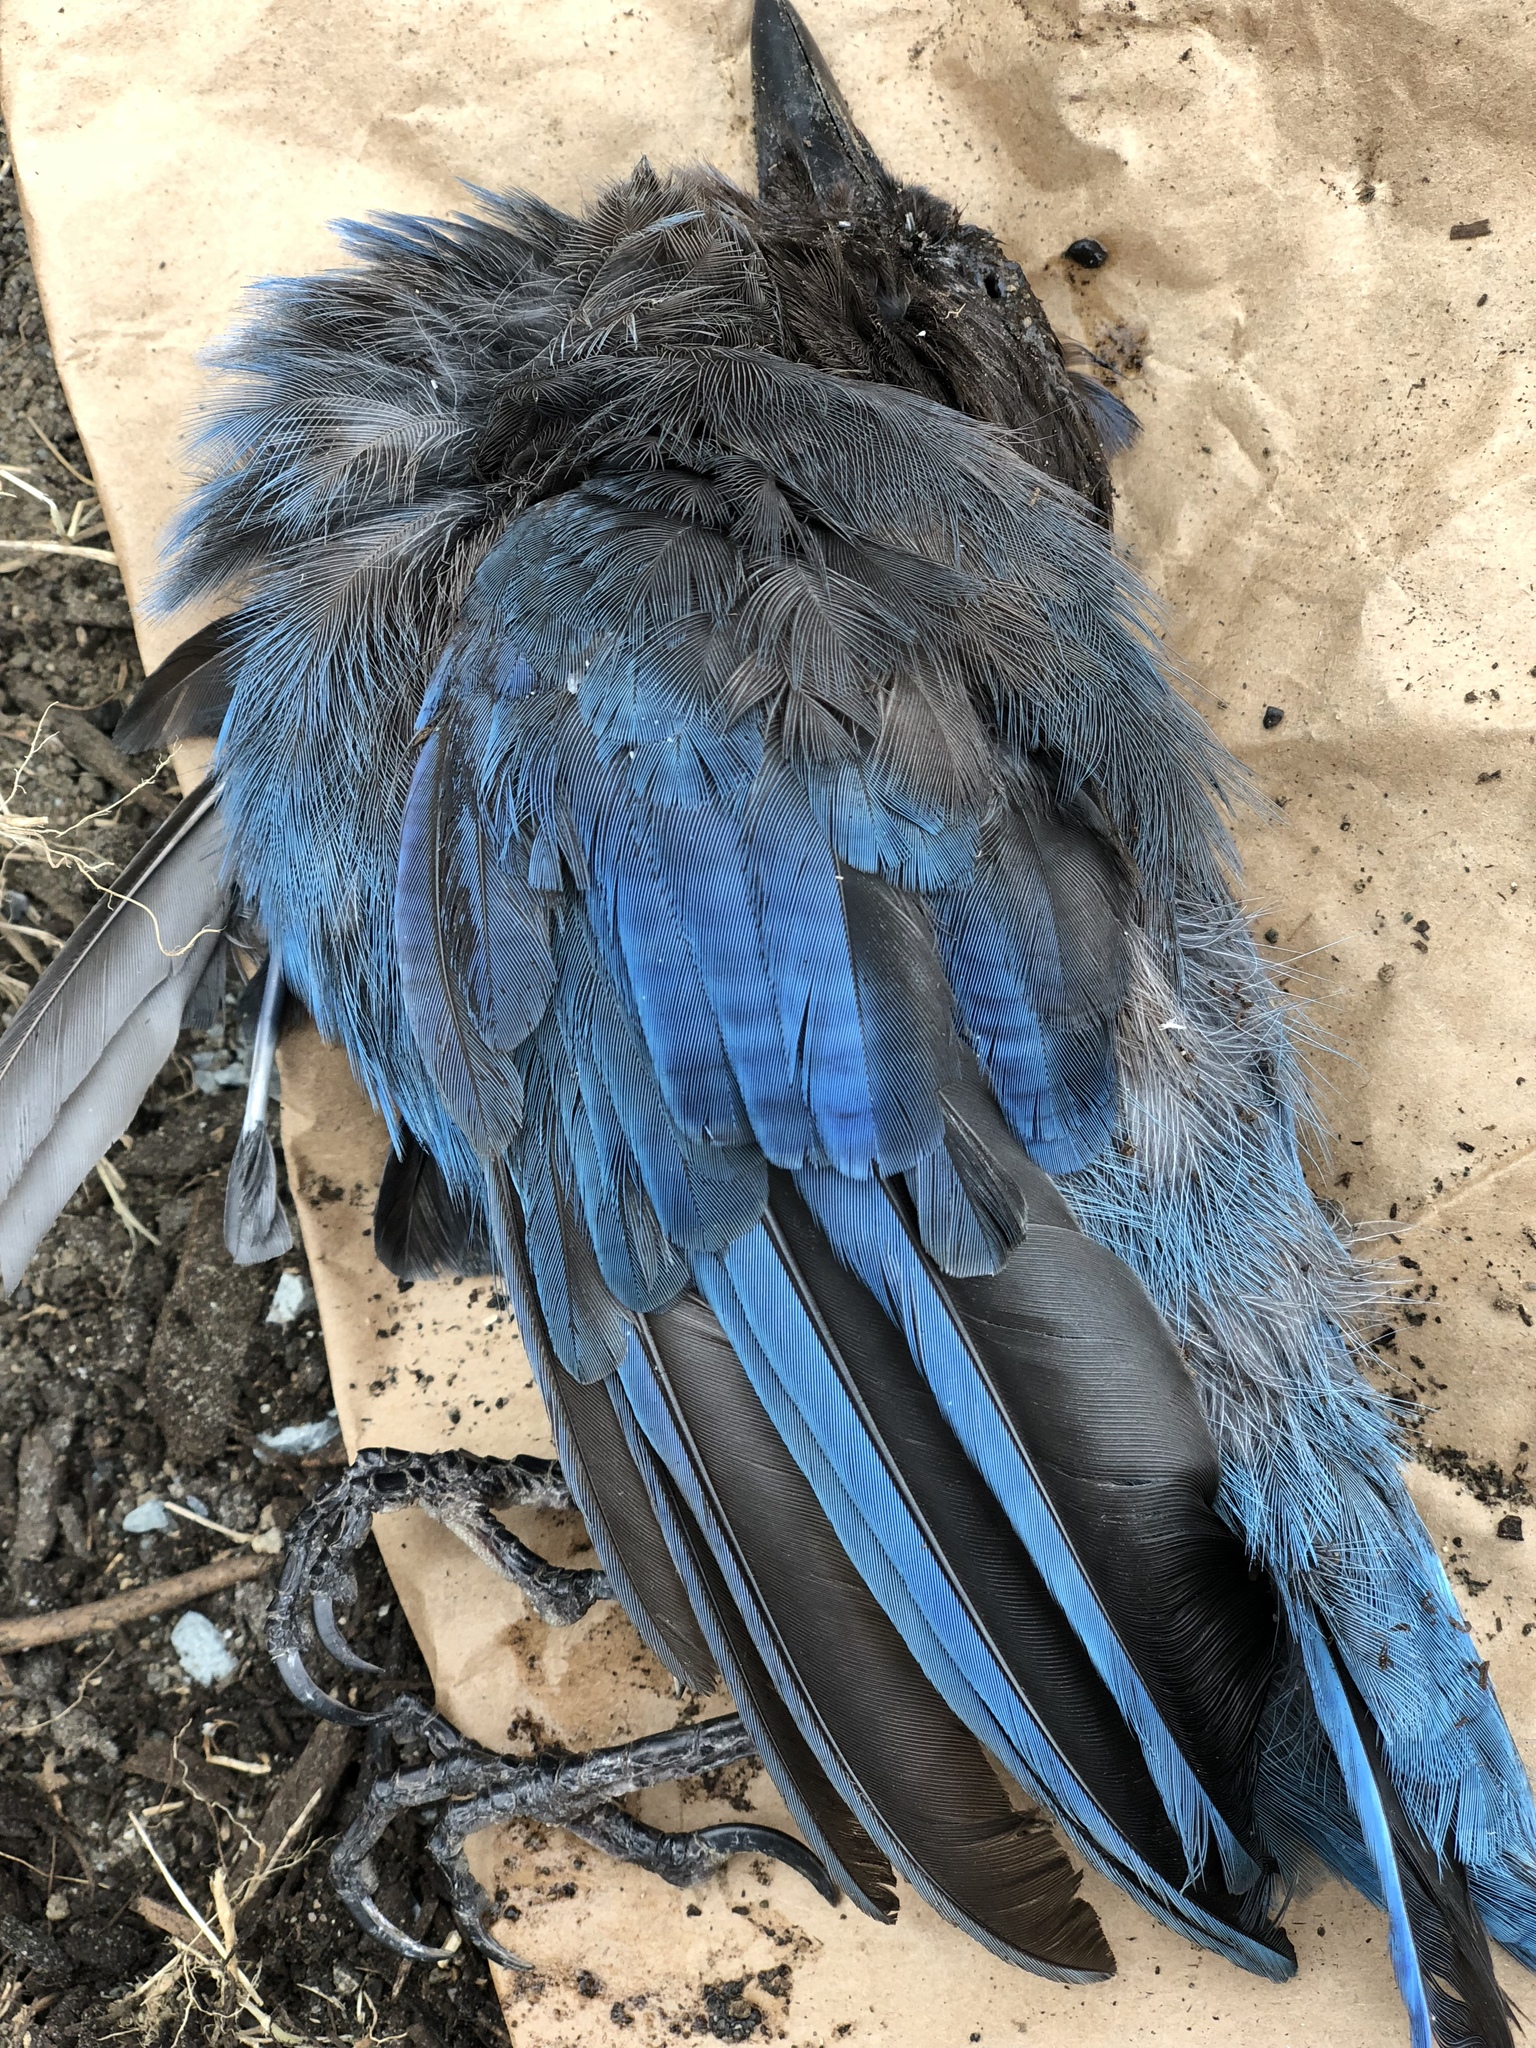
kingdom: Animalia
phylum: Chordata
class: Aves
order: Passeriformes
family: Corvidae
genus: Cyanocitta
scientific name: Cyanocitta stelleri
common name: Steller's jay
